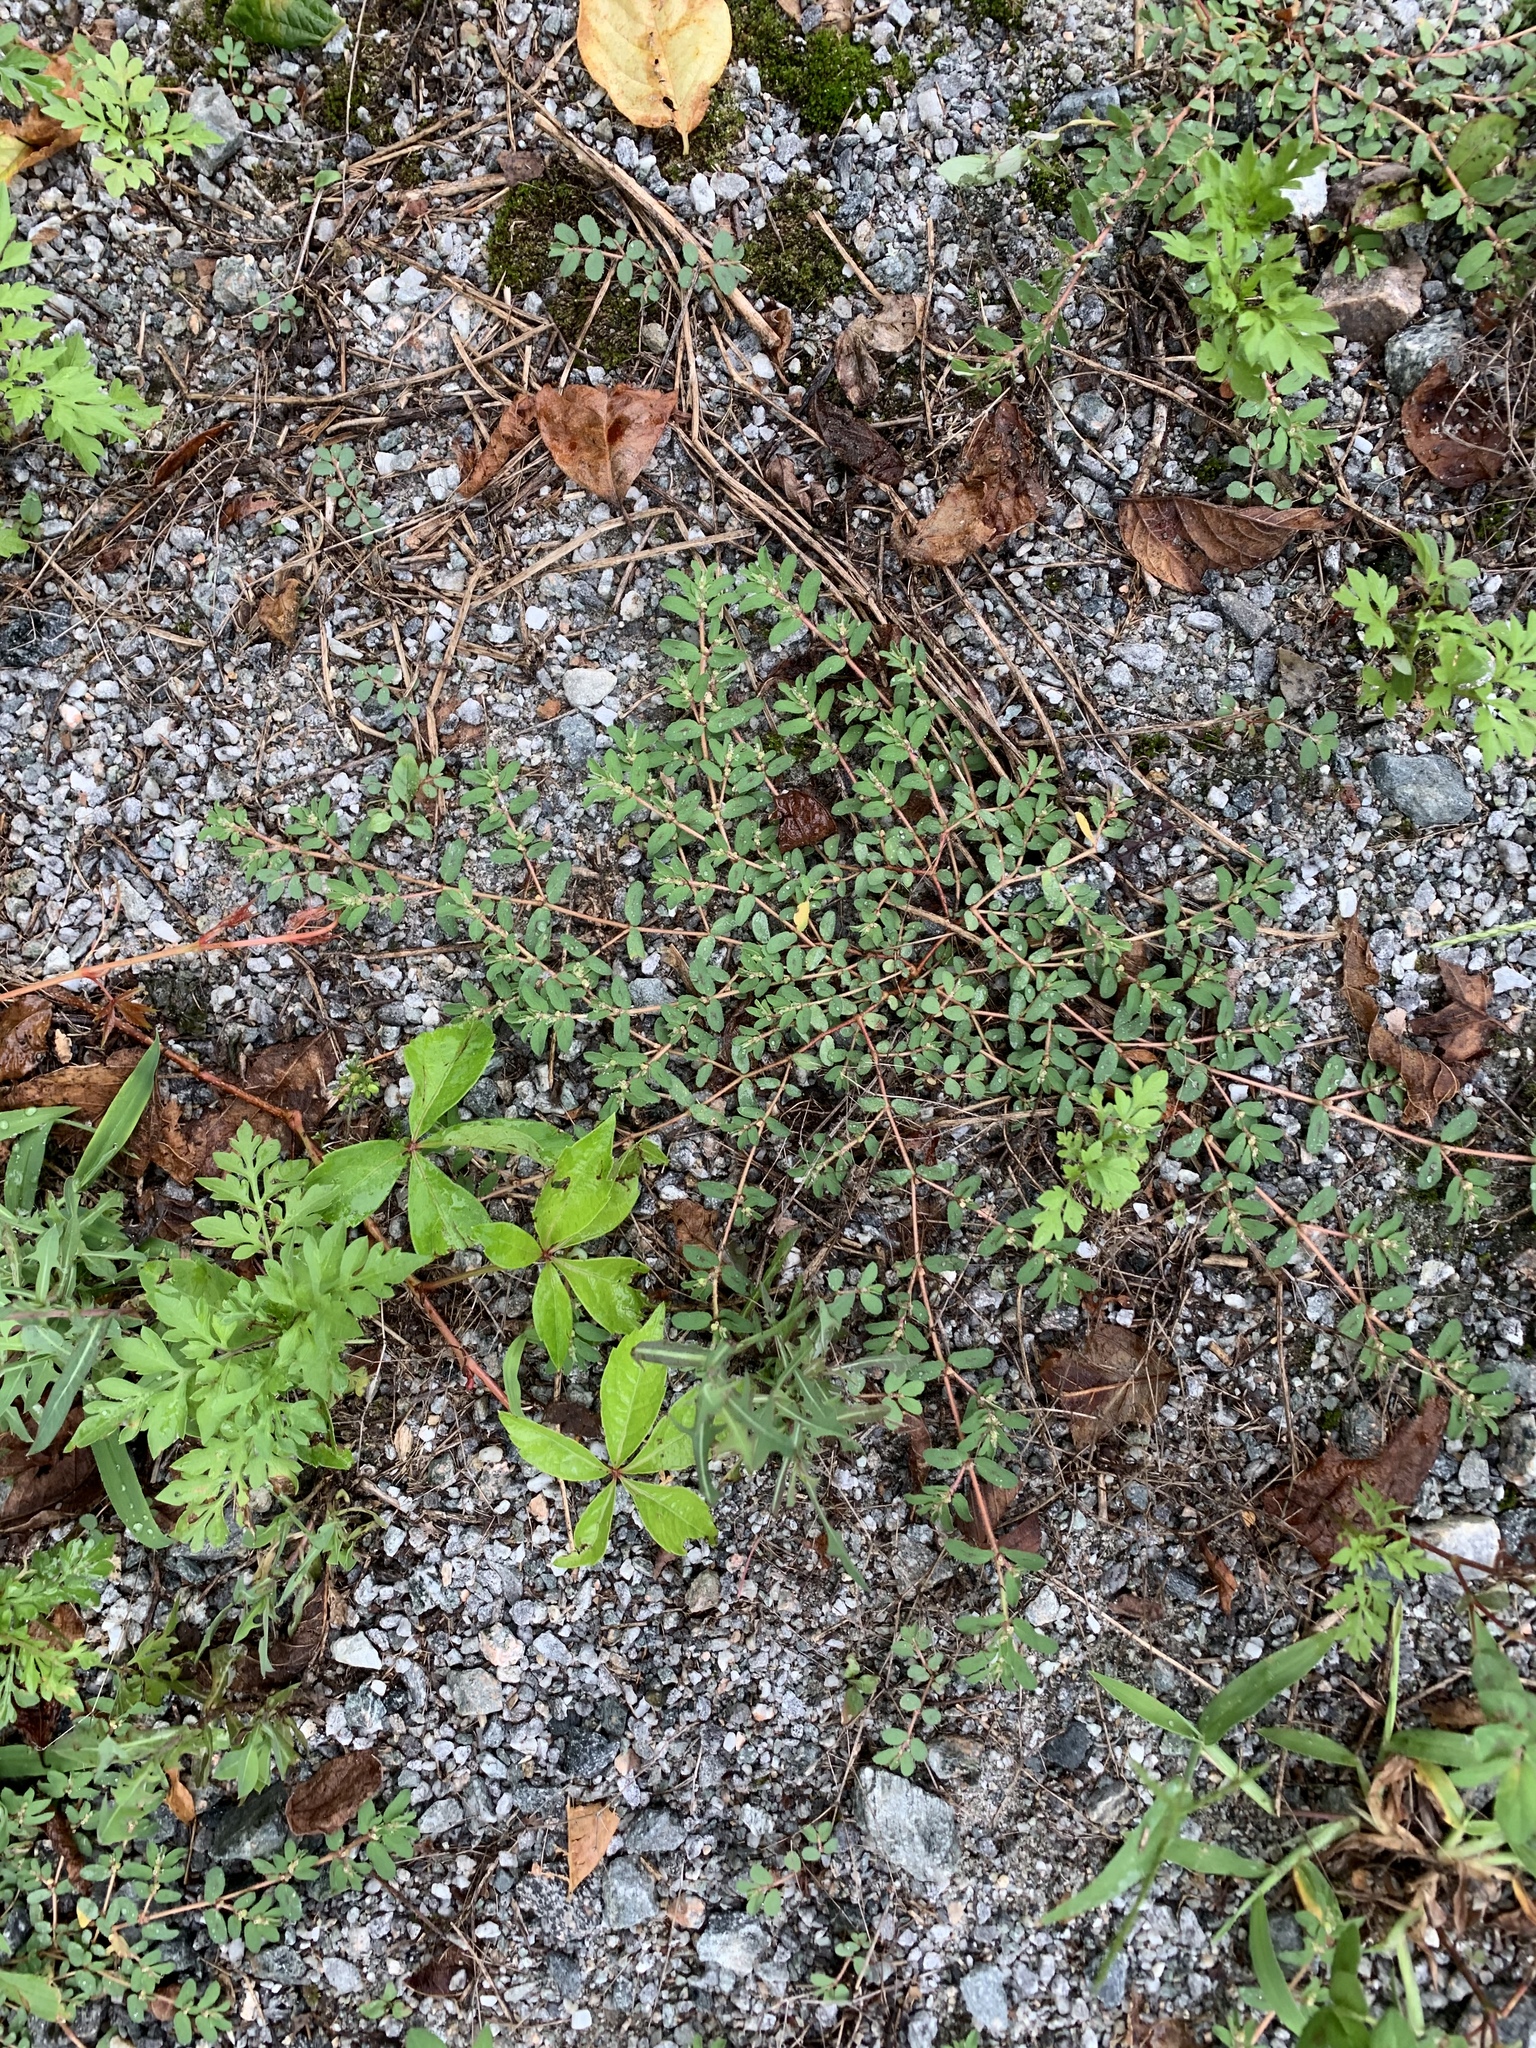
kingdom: Plantae
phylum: Tracheophyta
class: Magnoliopsida
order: Malpighiales
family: Euphorbiaceae
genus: Euphorbia
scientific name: Euphorbia maculata
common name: Spotted spurge
